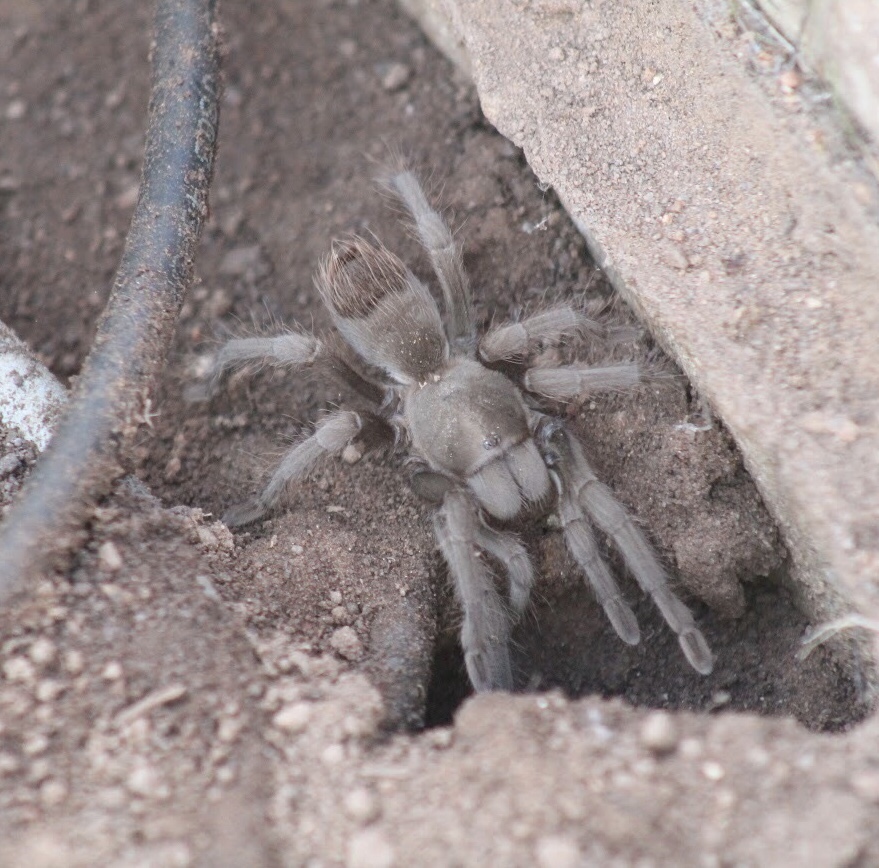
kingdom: Animalia
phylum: Arthropoda
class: Arachnida
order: Araneae
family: Theraphosidae
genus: Aphonopelma
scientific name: Aphonopelma eutylenum
